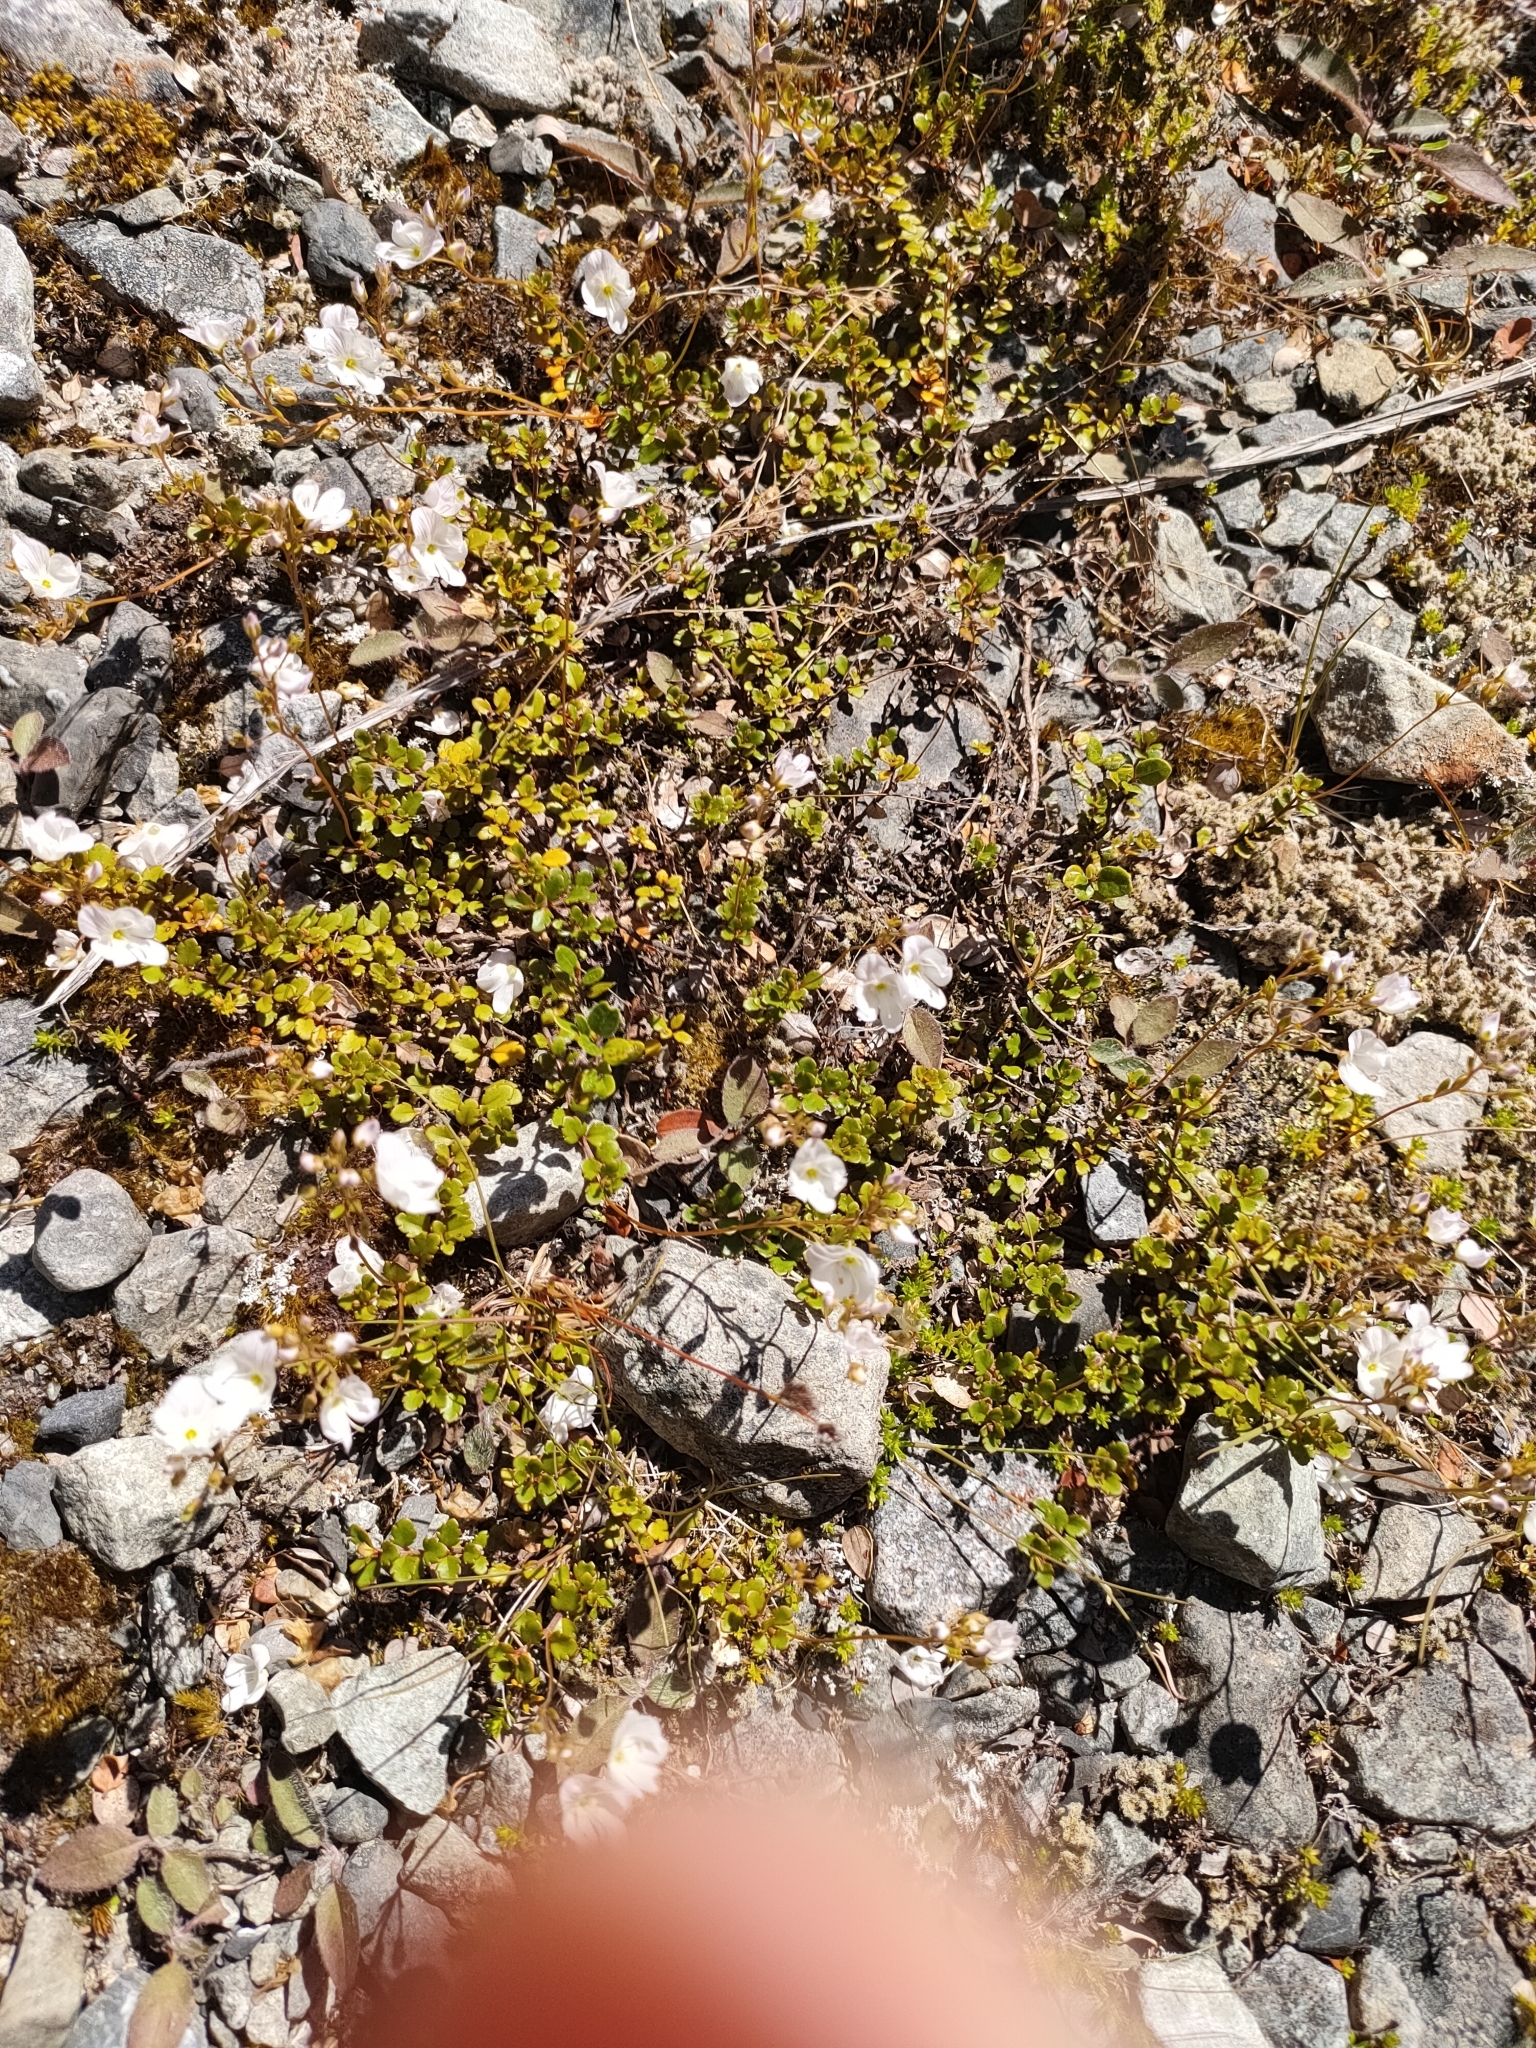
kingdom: Plantae
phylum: Tracheophyta
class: Magnoliopsida
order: Lamiales
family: Plantaginaceae
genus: Veronica
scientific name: Veronica lyallii
